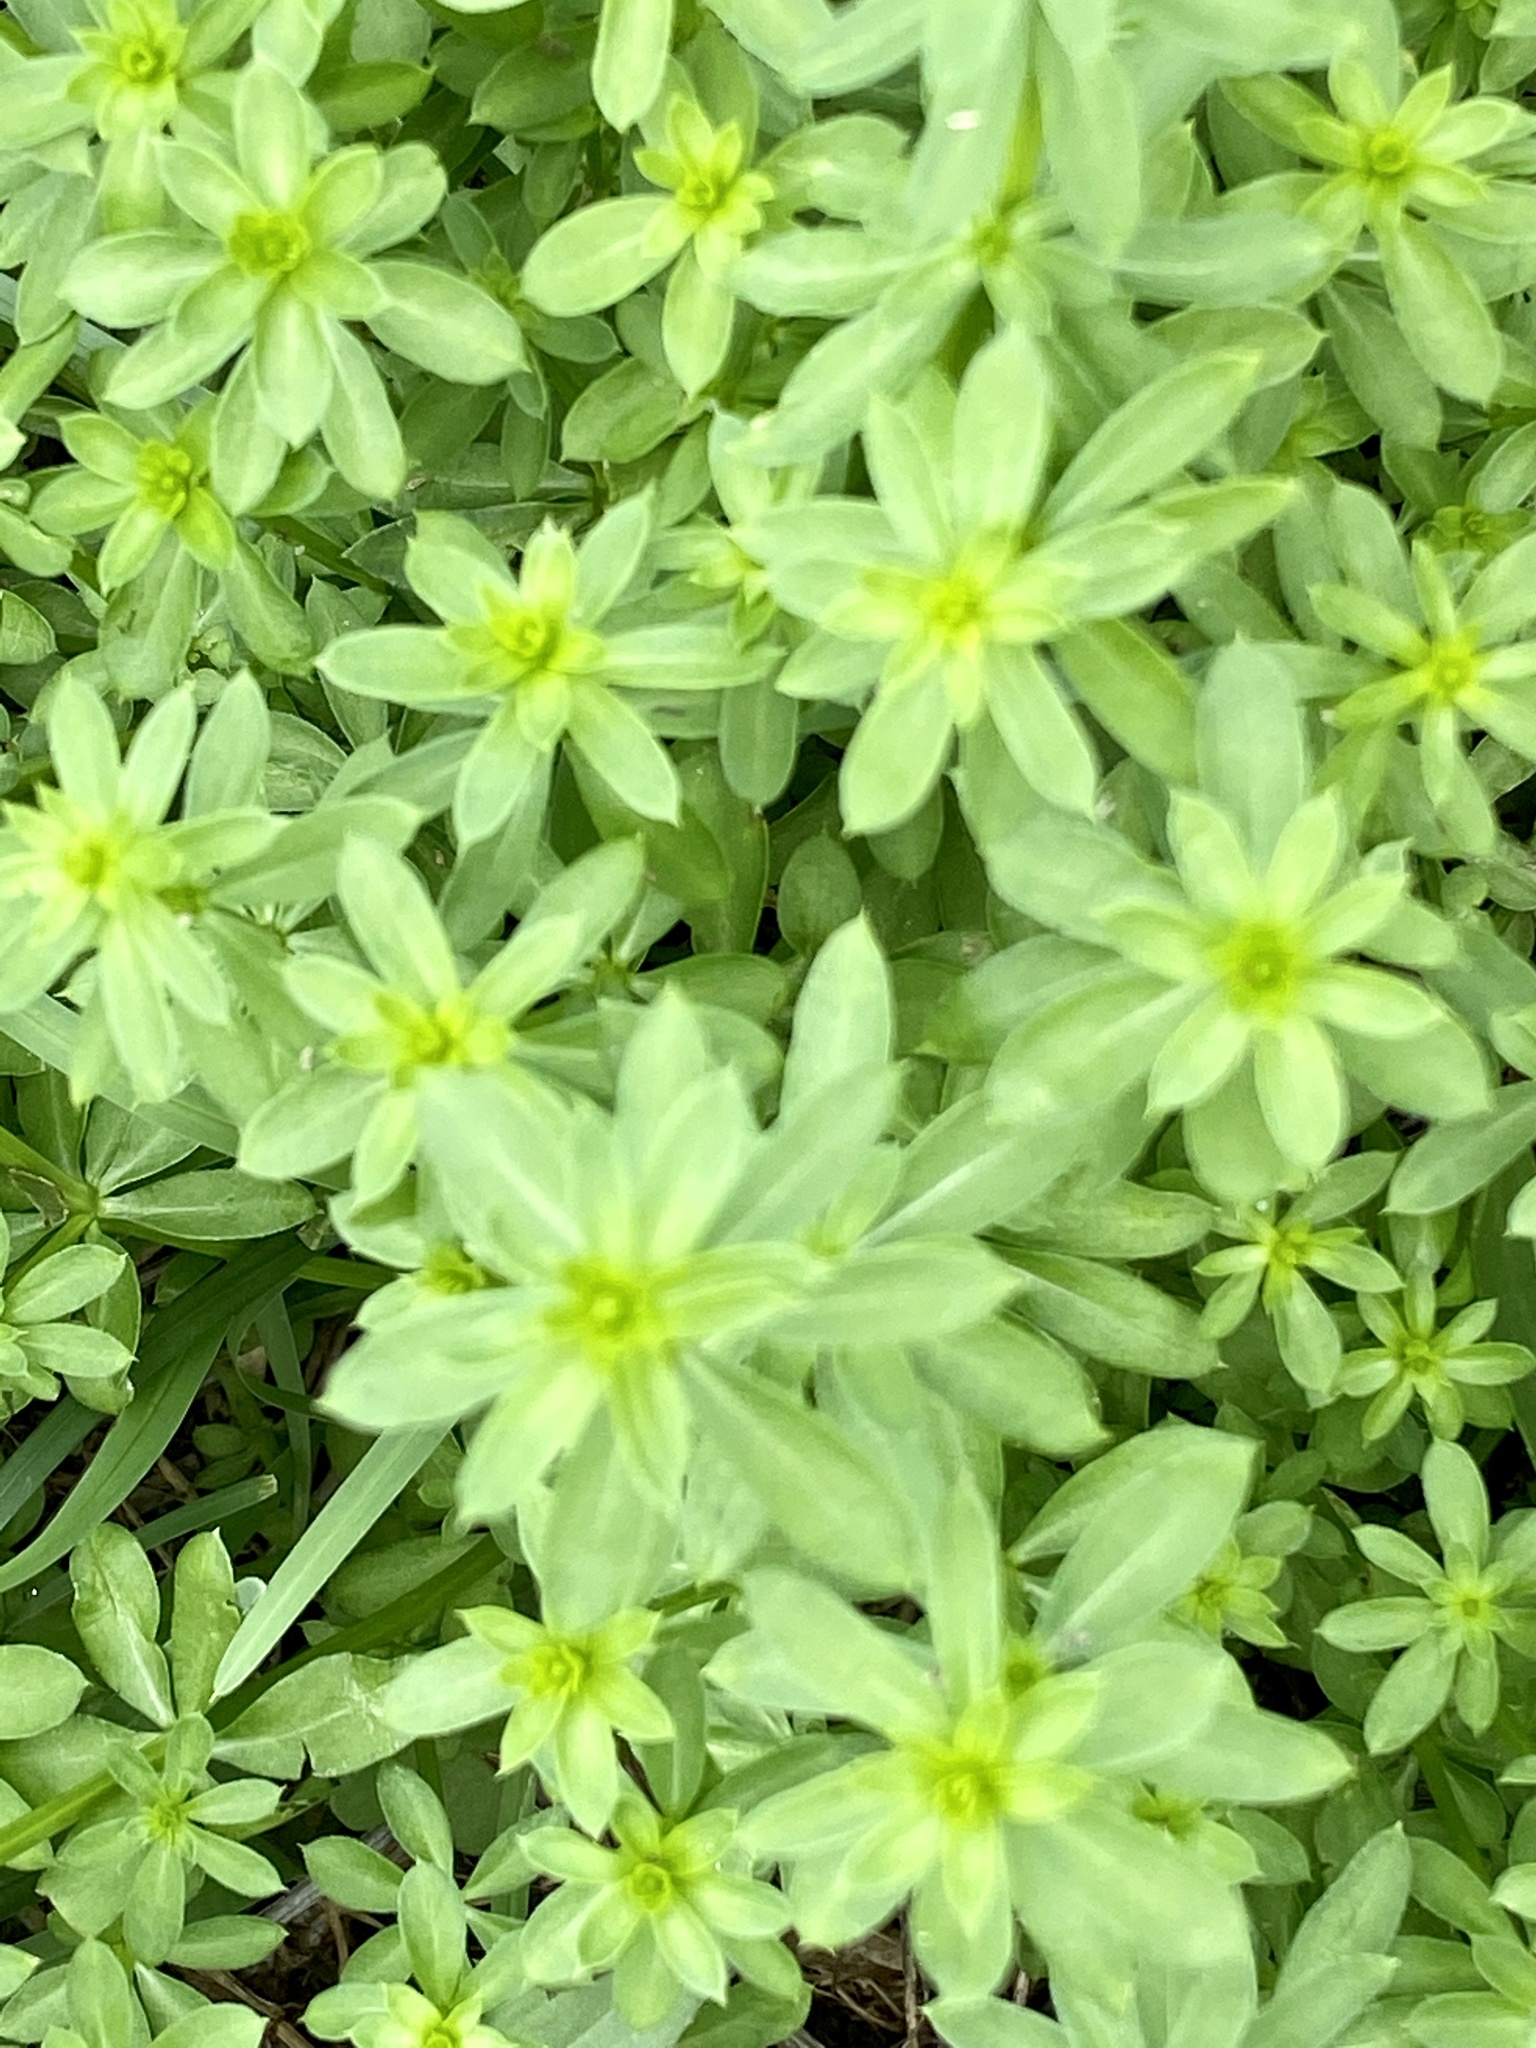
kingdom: Plantae
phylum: Tracheophyta
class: Magnoliopsida
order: Gentianales
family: Rubiaceae
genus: Galium
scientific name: Galium mollugo
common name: Hedge bedstraw
